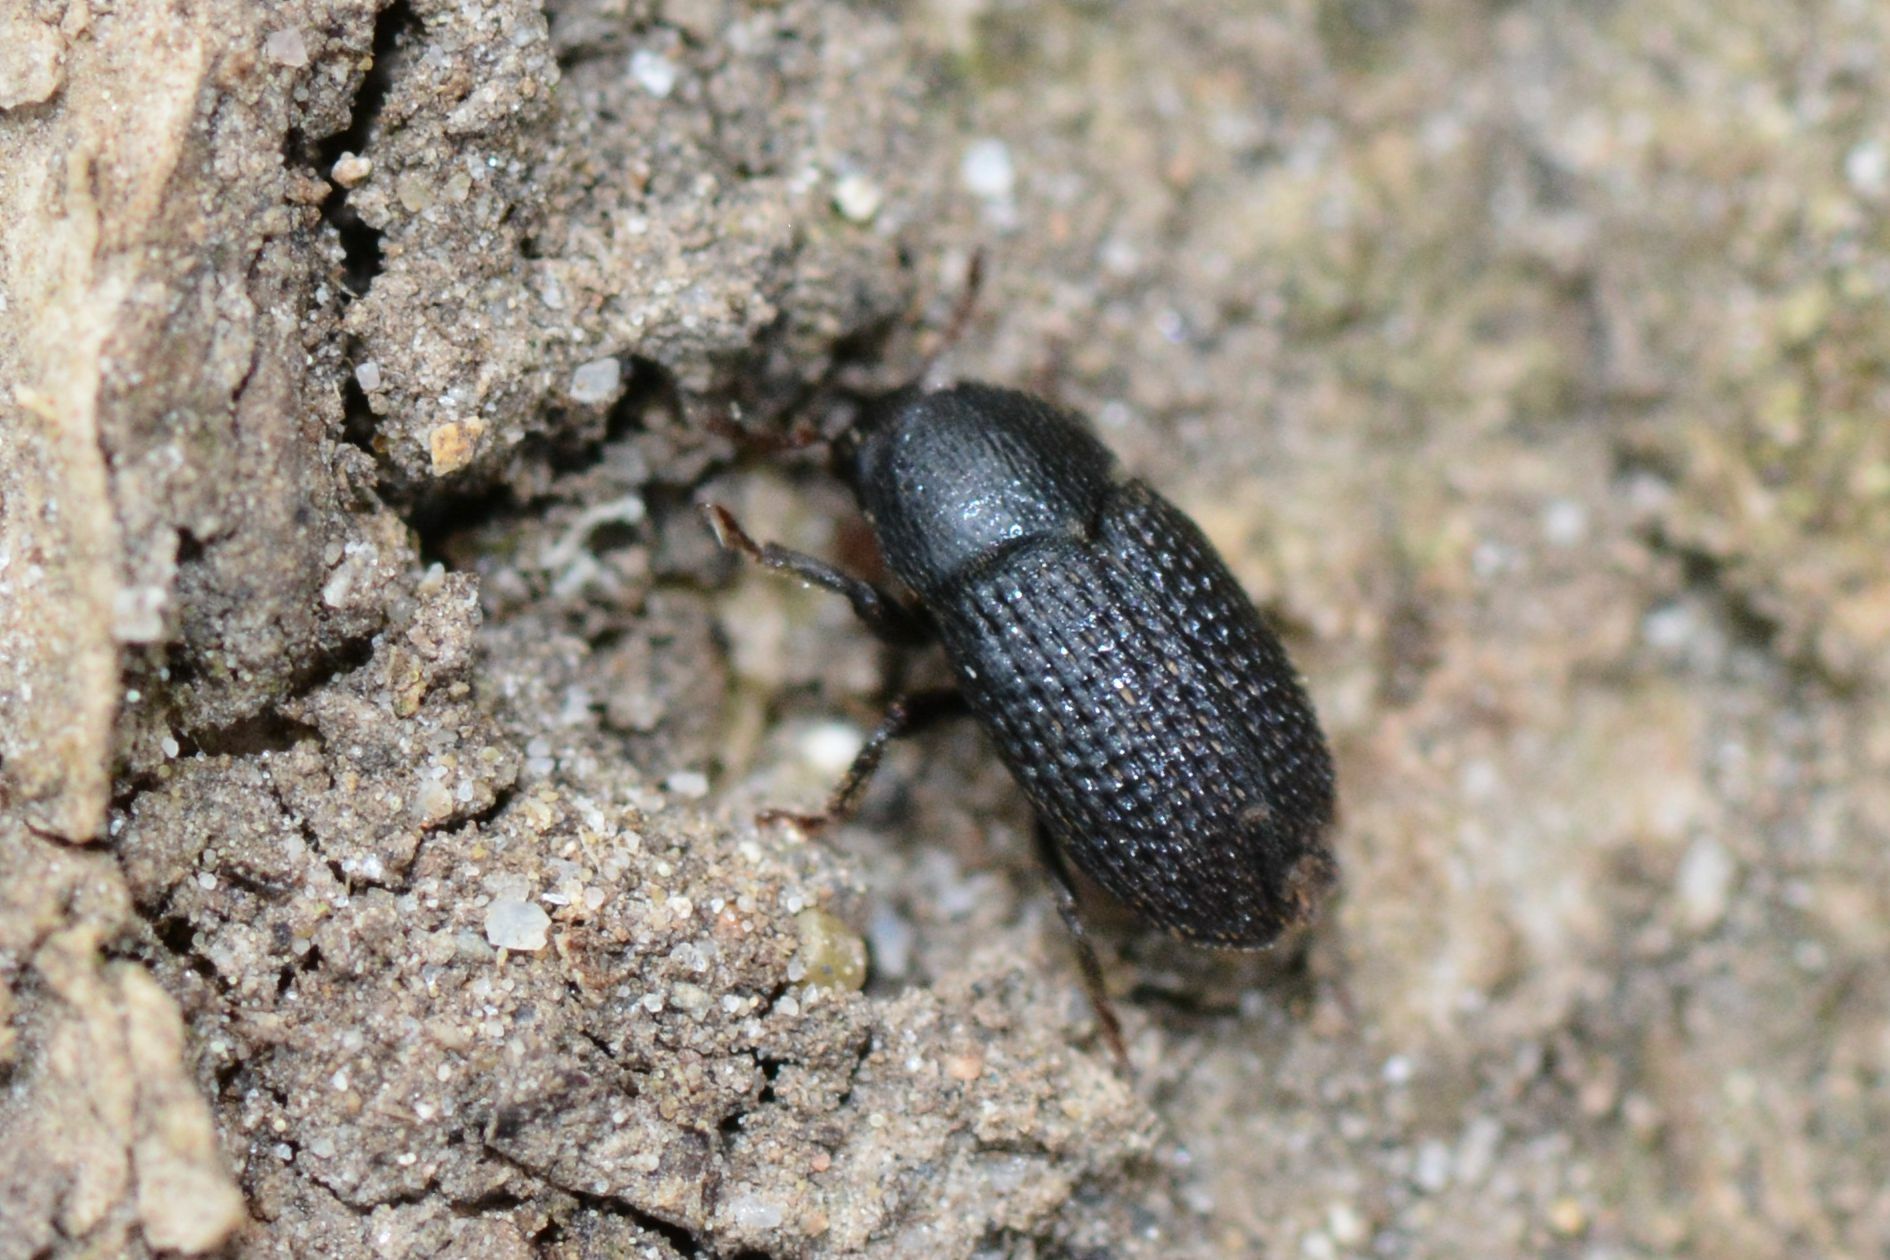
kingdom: Animalia
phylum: Arthropoda
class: Insecta
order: Coleoptera
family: Curculionidae
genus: Hylesinus
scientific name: Hylesinus crenatus
